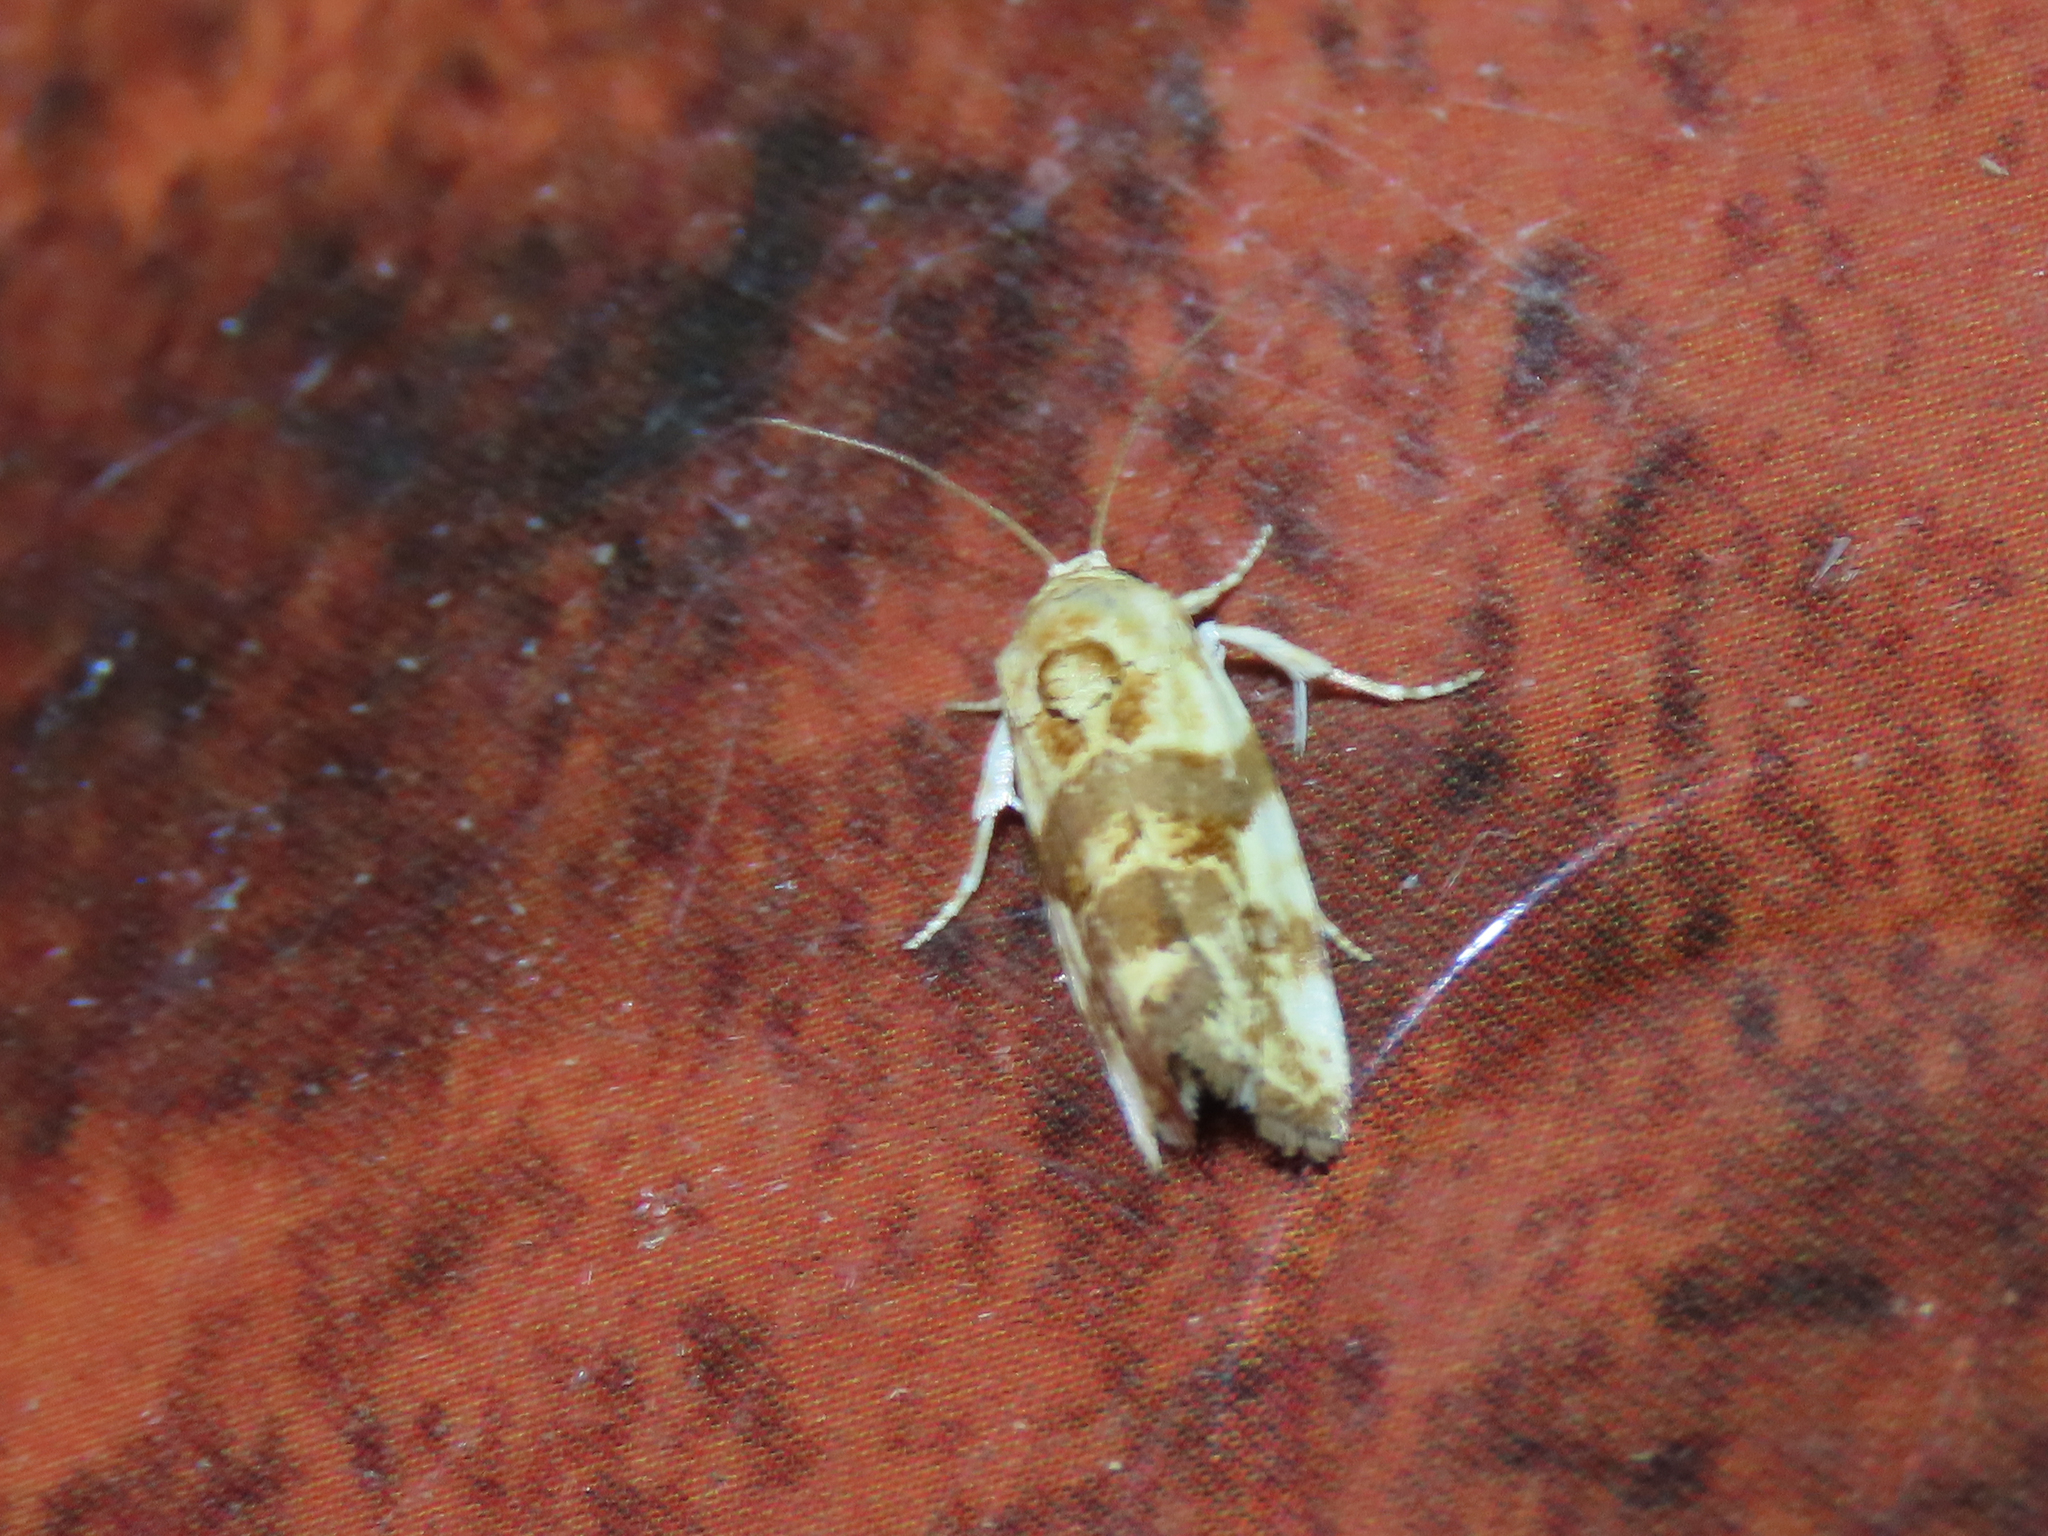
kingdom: Animalia
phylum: Arthropoda
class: Insecta
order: Lepidoptera
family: Noctuidae
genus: Acontia
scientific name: Acontia obatra
